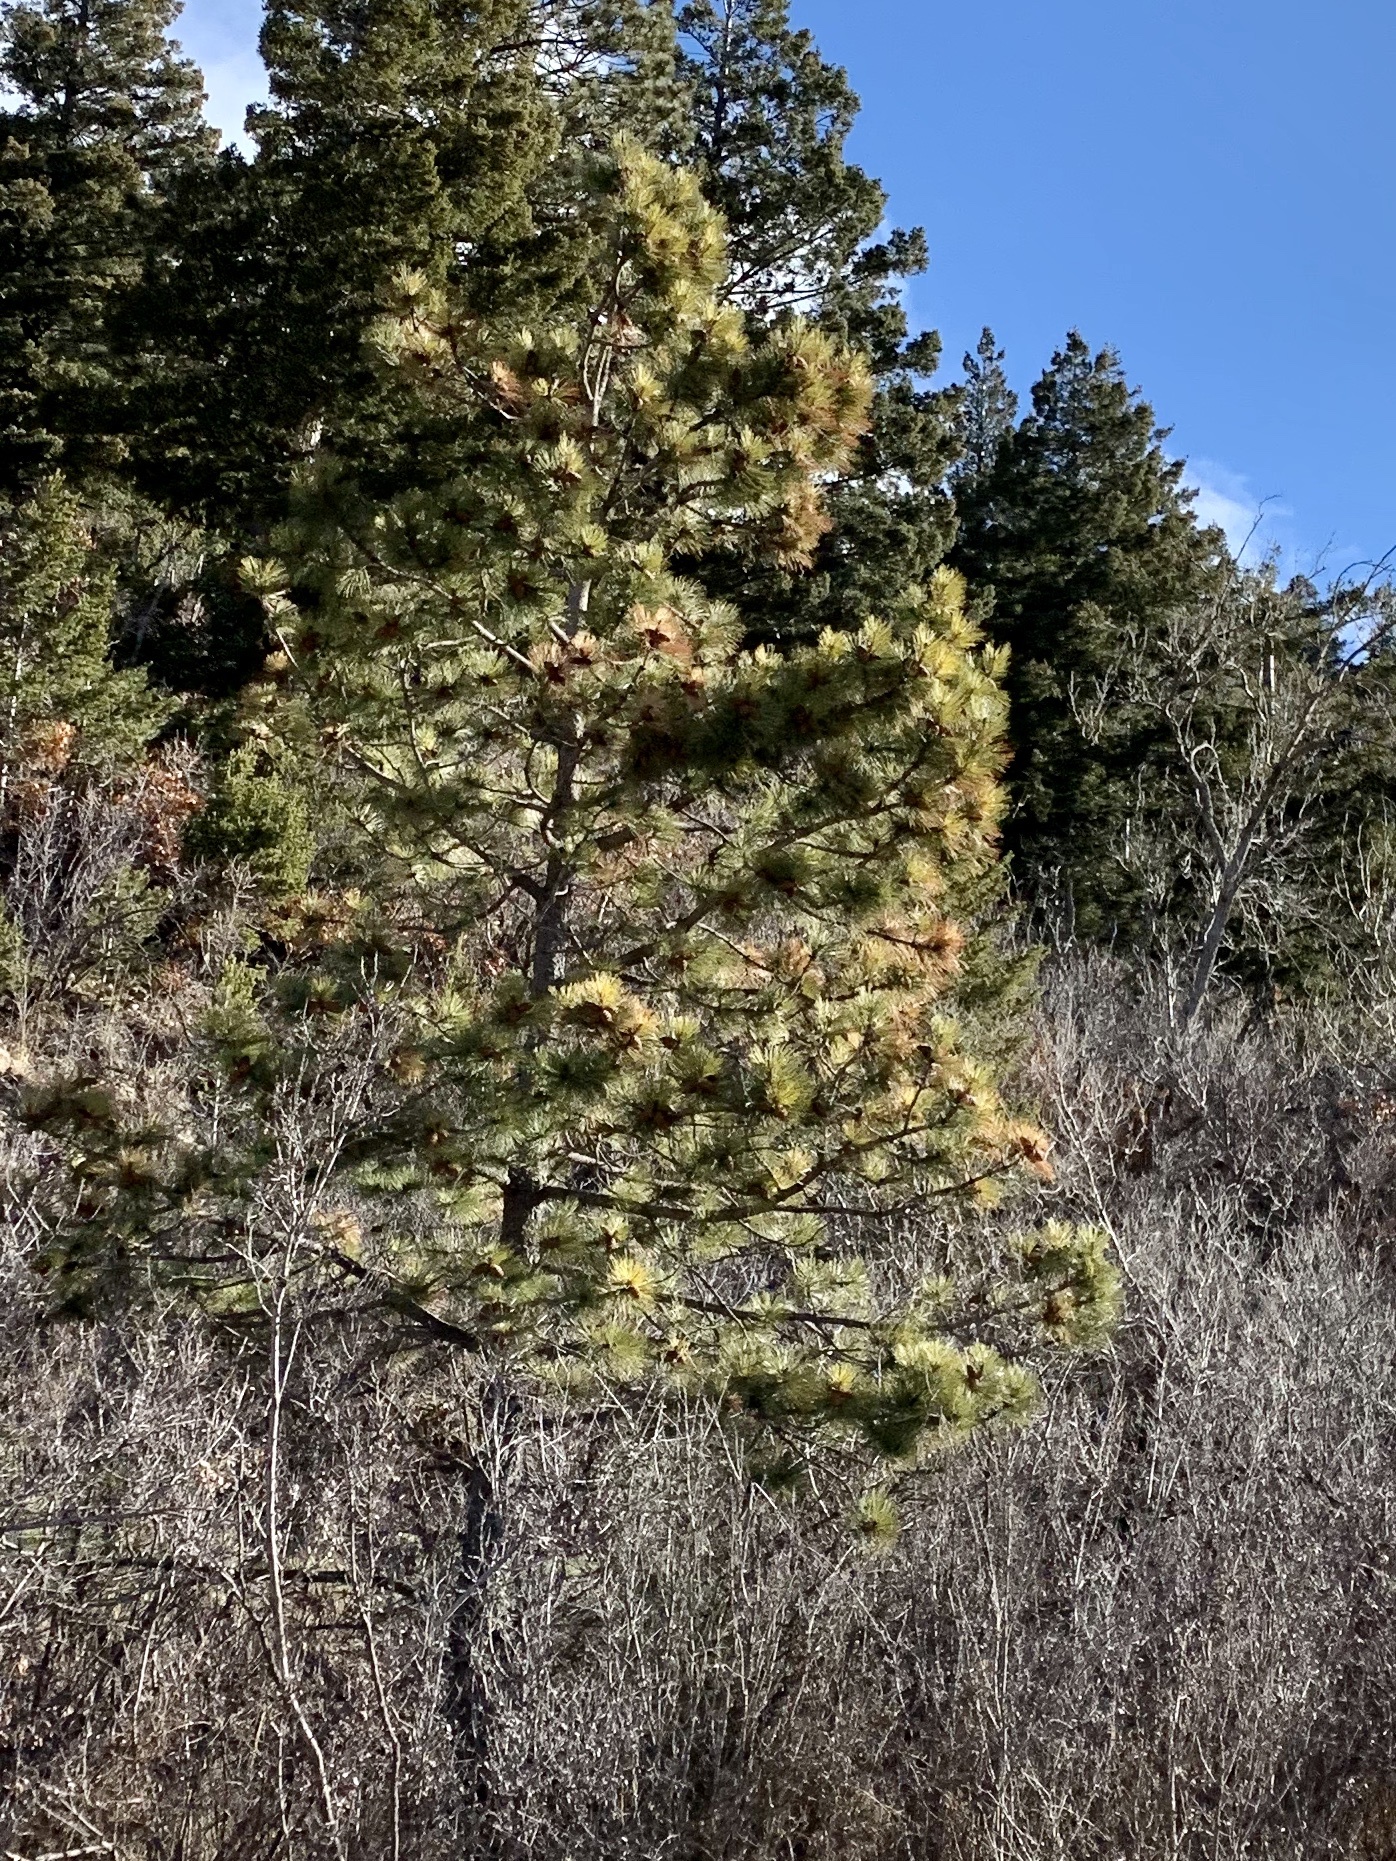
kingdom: Plantae
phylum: Tracheophyta
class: Pinopsida
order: Pinales
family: Pinaceae
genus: Pinus
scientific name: Pinus ponderosa
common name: Western yellow-pine
